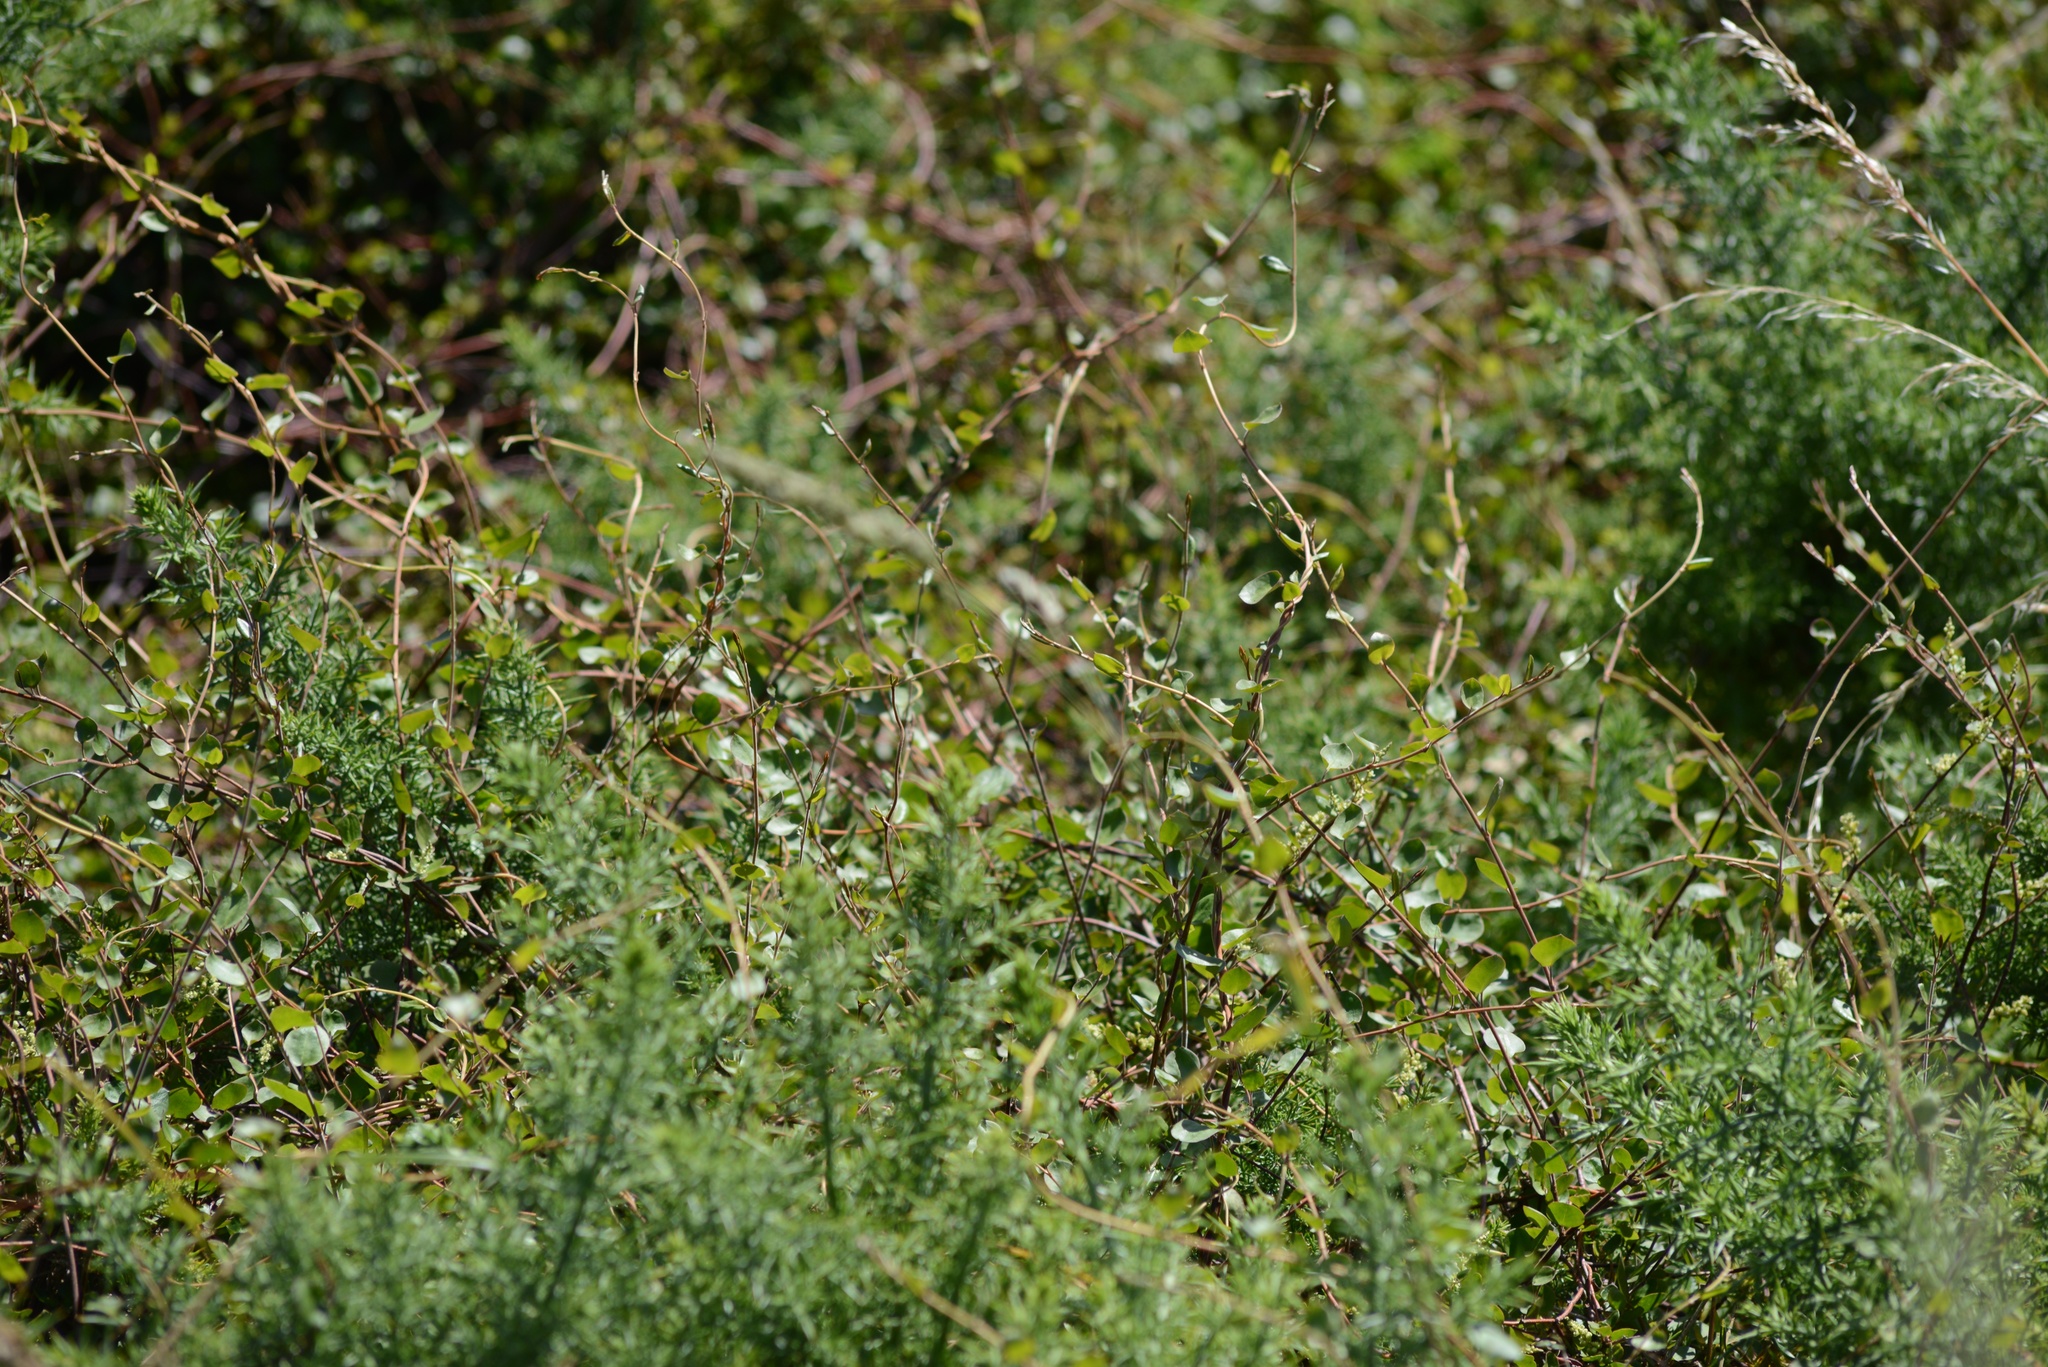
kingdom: Plantae
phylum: Tracheophyta
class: Magnoliopsida
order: Caryophyllales
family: Polygonaceae
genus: Muehlenbeckia
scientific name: Muehlenbeckia complexa
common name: Wireplant
